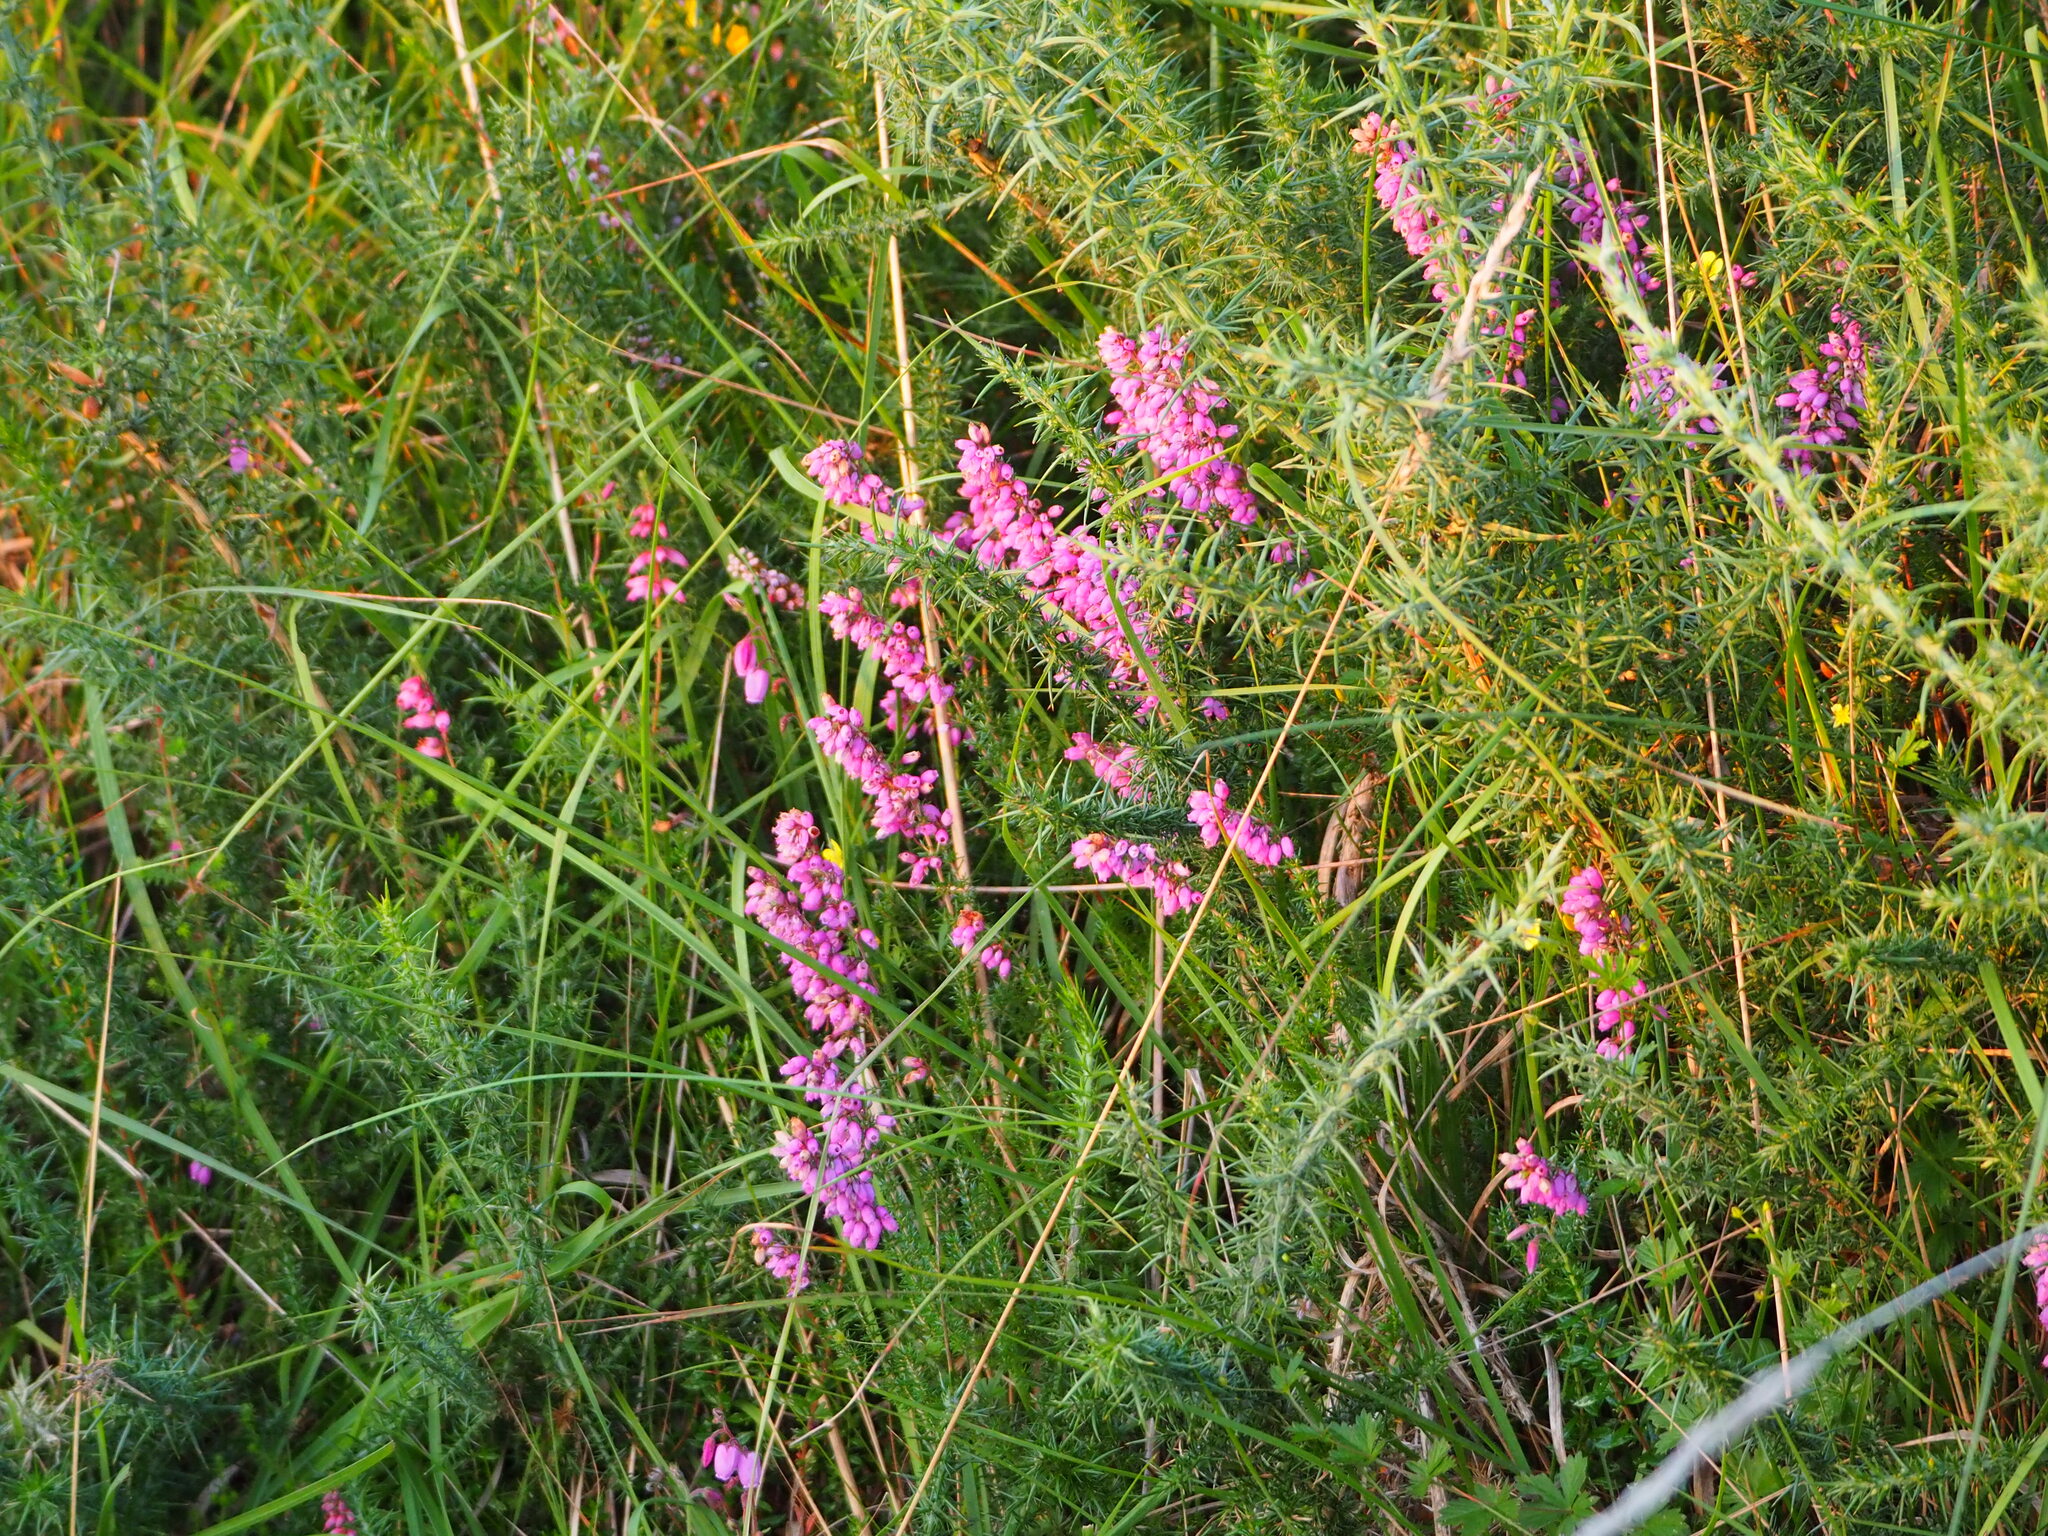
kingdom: Plantae
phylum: Tracheophyta
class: Magnoliopsida
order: Ericales
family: Ericaceae
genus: Erica
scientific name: Erica cinerea
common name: Bell heather
